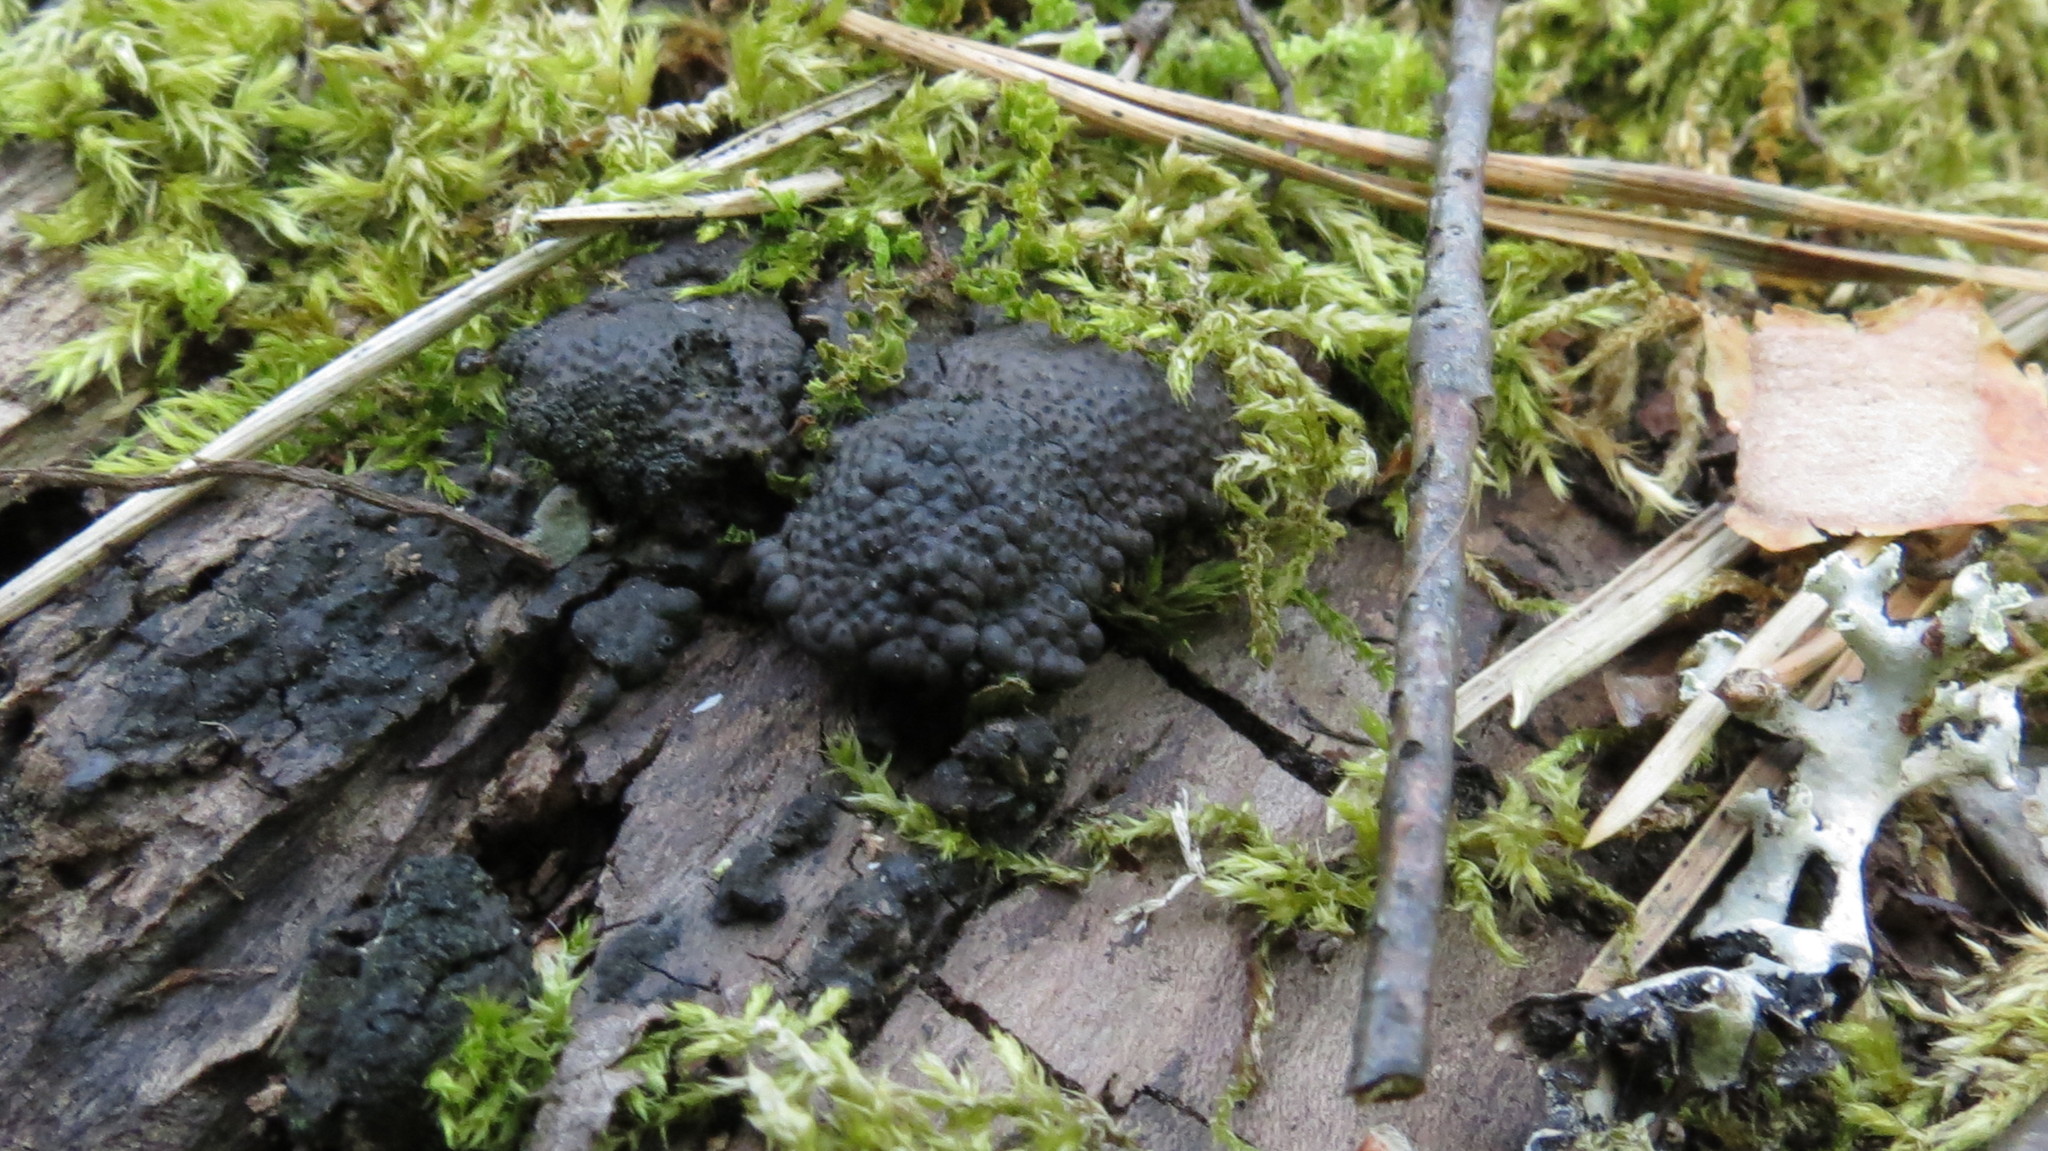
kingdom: Fungi
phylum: Ascomycota
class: Sordariomycetes
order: Xylariales
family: Hypoxylaceae
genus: Jackrogersella
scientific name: Jackrogersella multiformis
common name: Birch woodwart
